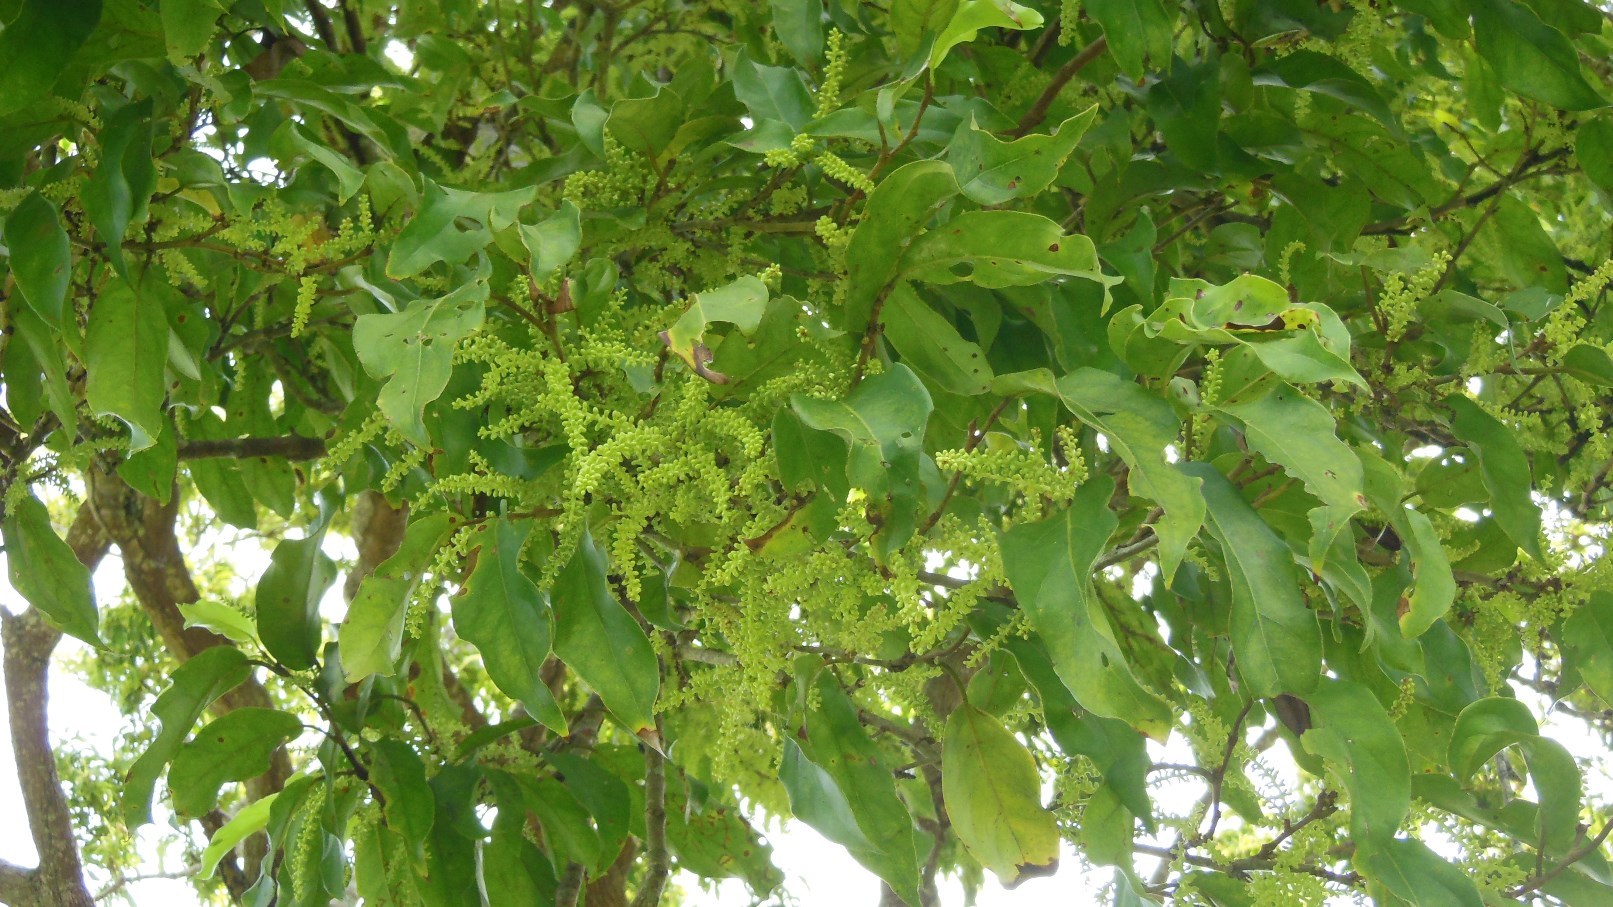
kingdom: Plantae
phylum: Tracheophyta
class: Magnoliopsida
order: Caryophyllales
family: Polygonaceae
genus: Coccoloba
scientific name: Coccoloba barbadensis
